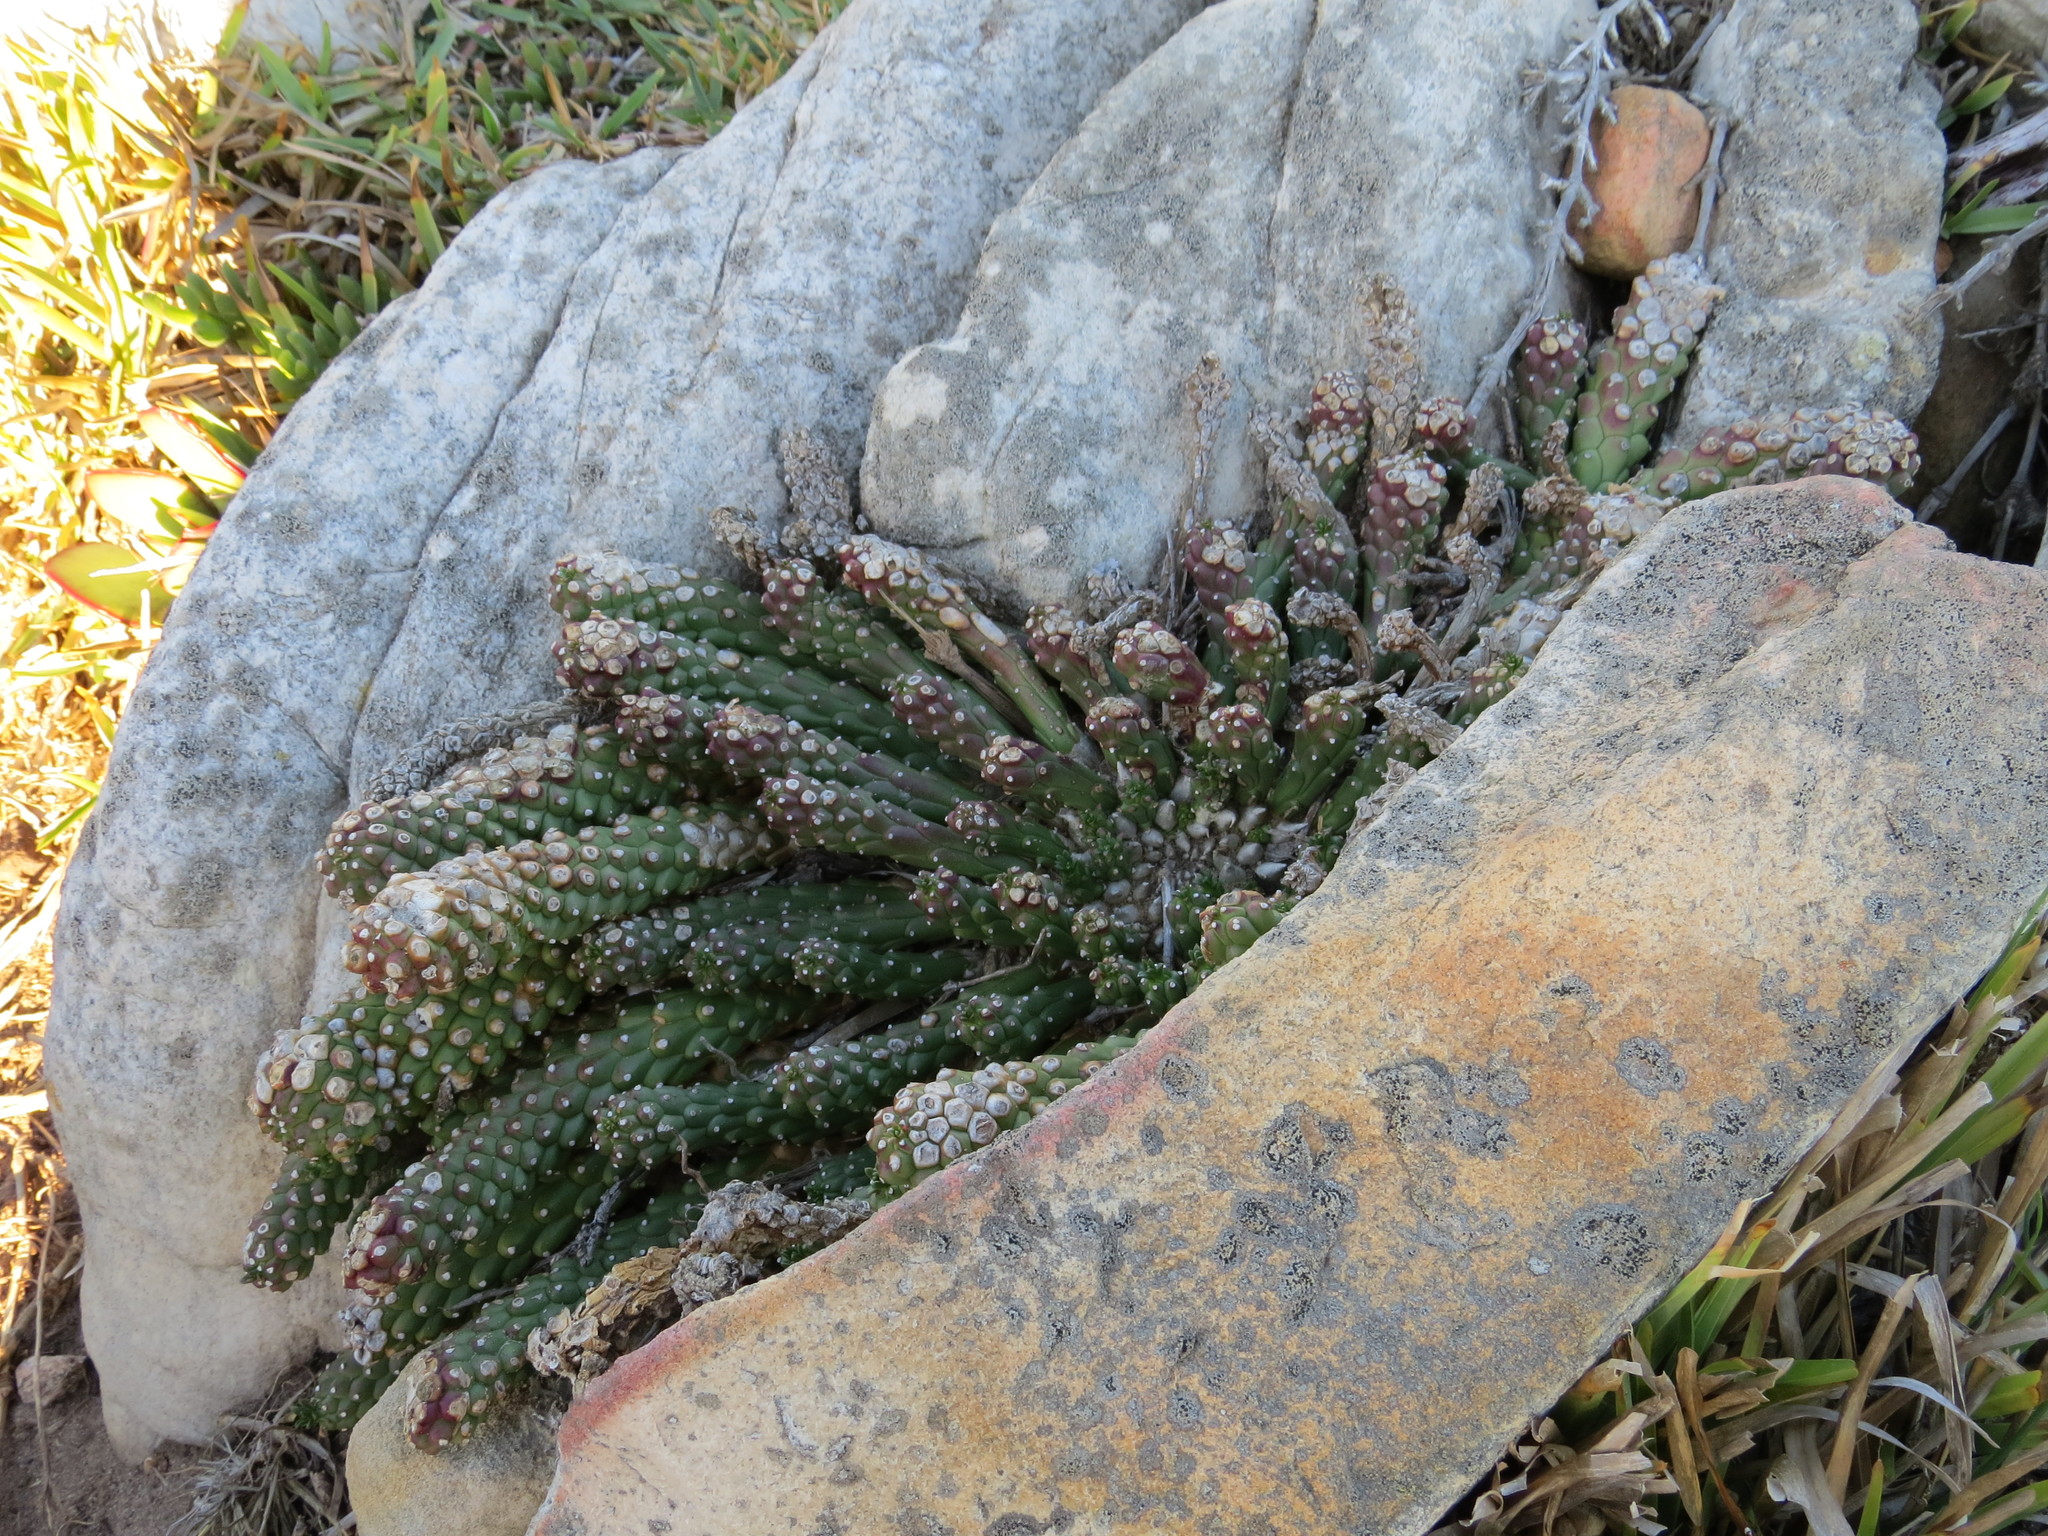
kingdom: Plantae
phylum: Tracheophyta
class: Magnoliopsida
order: Malpighiales
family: Euphorbiaceae
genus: Euphorbia
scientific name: Euphorbia caput-medusae
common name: Medusa's-head
